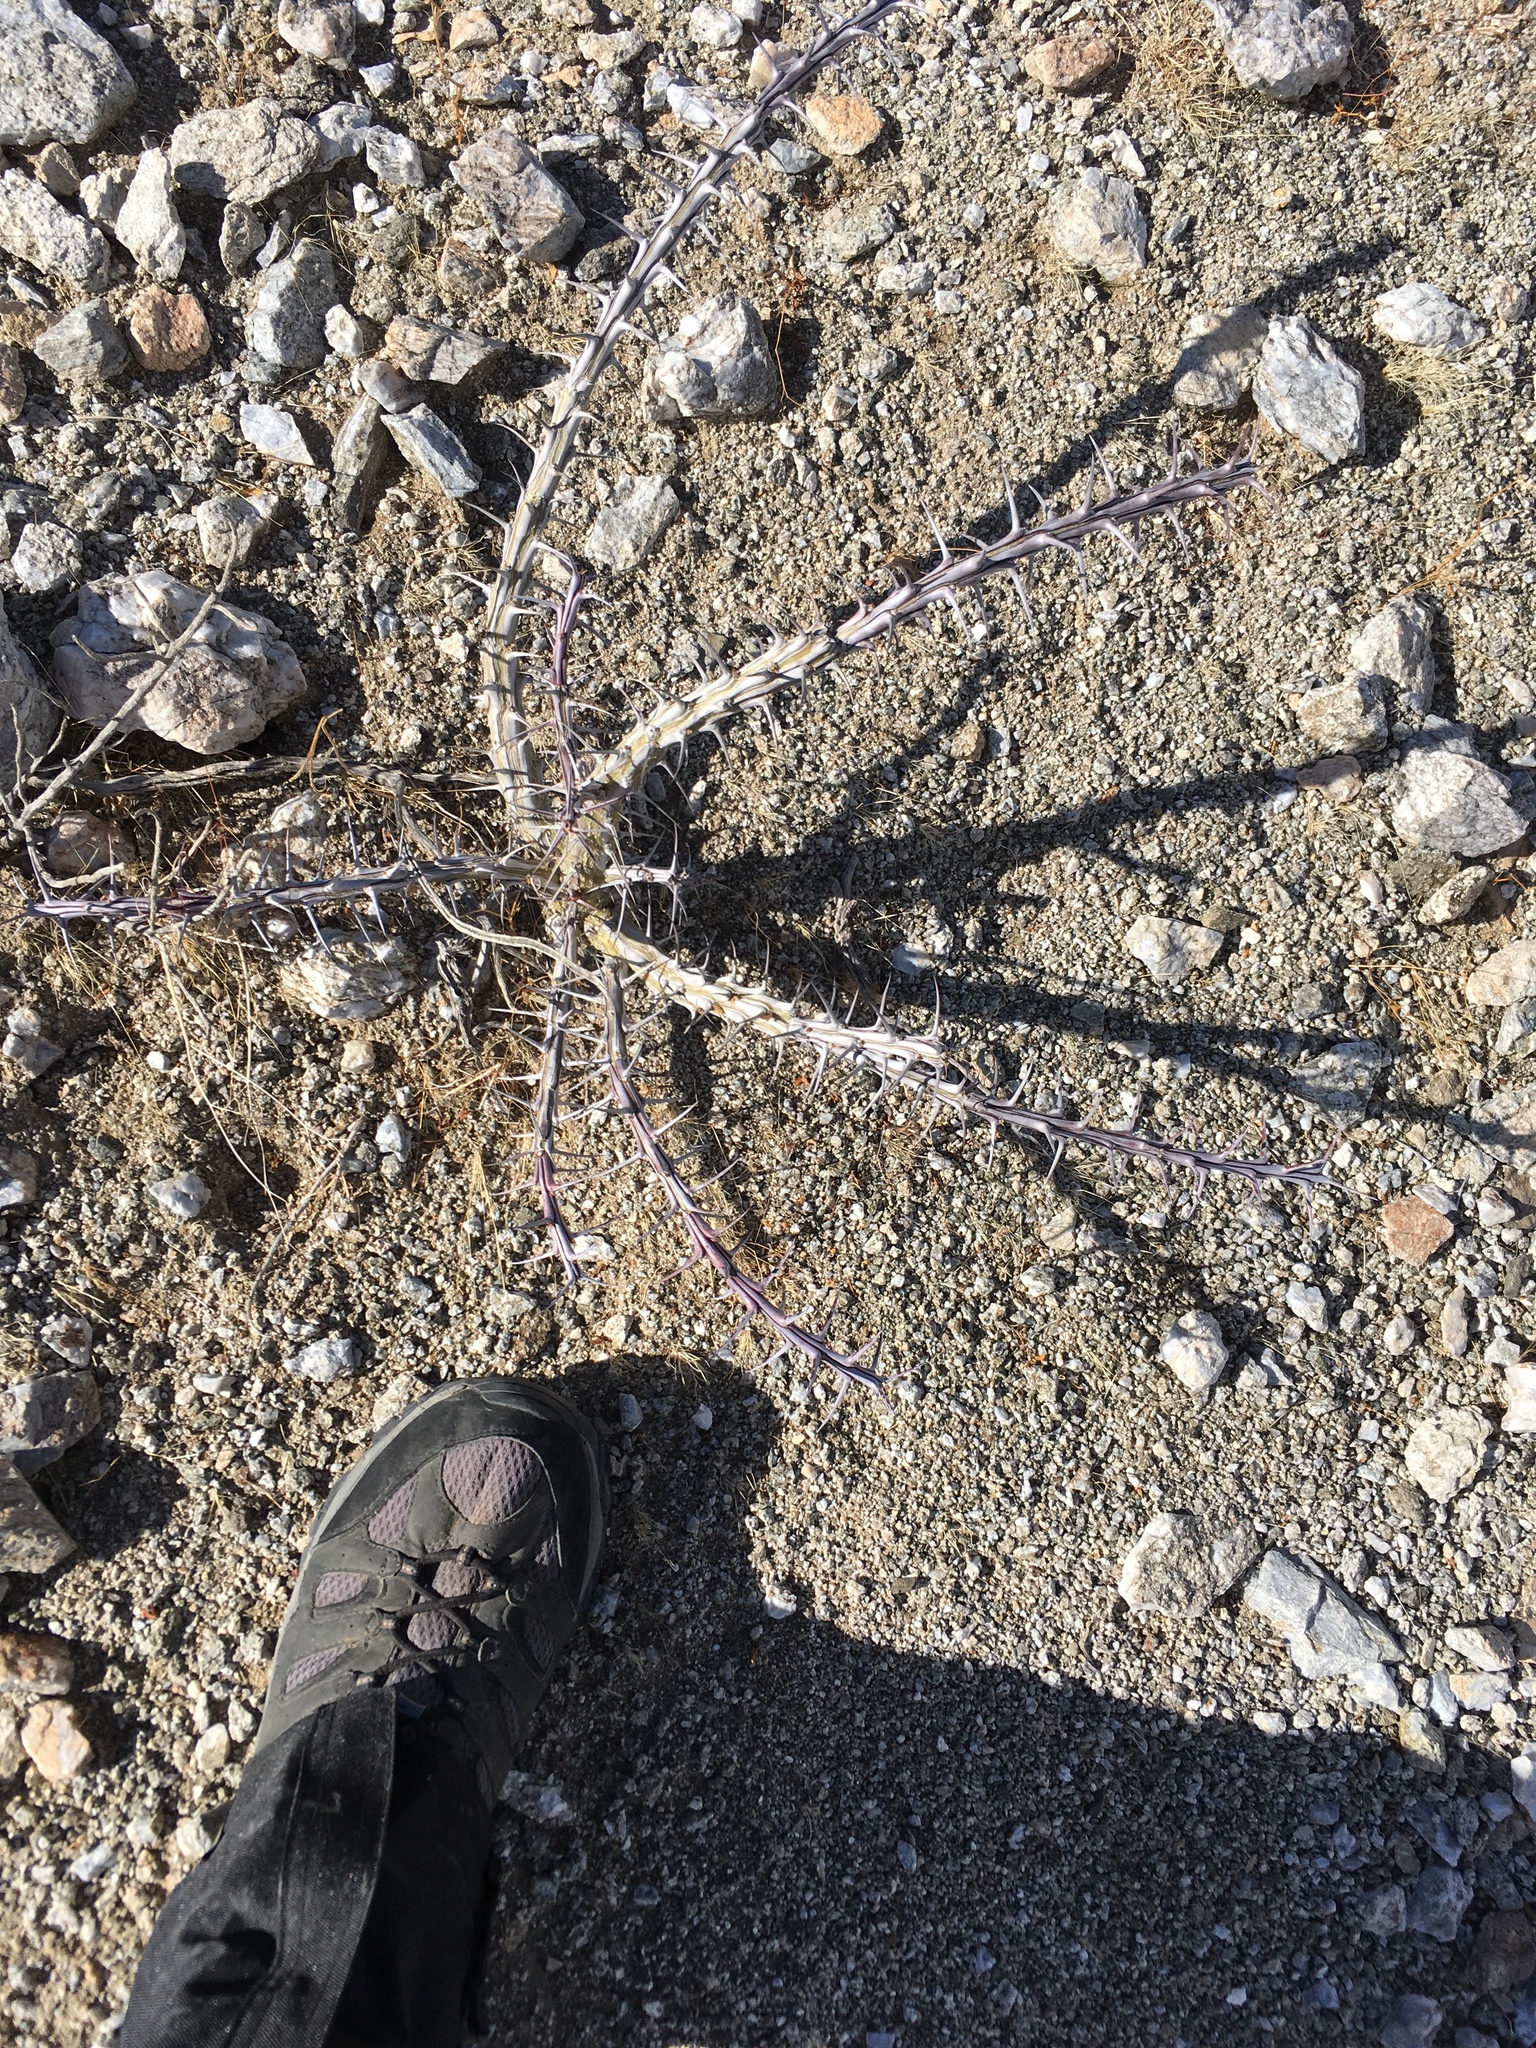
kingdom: Plantae
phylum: Tracheophyta
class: Magnoliopsida
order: Ericales
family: Fouquieriaceae
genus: Fouquieria
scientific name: Fouquieria splendens
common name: Vine-cactus
